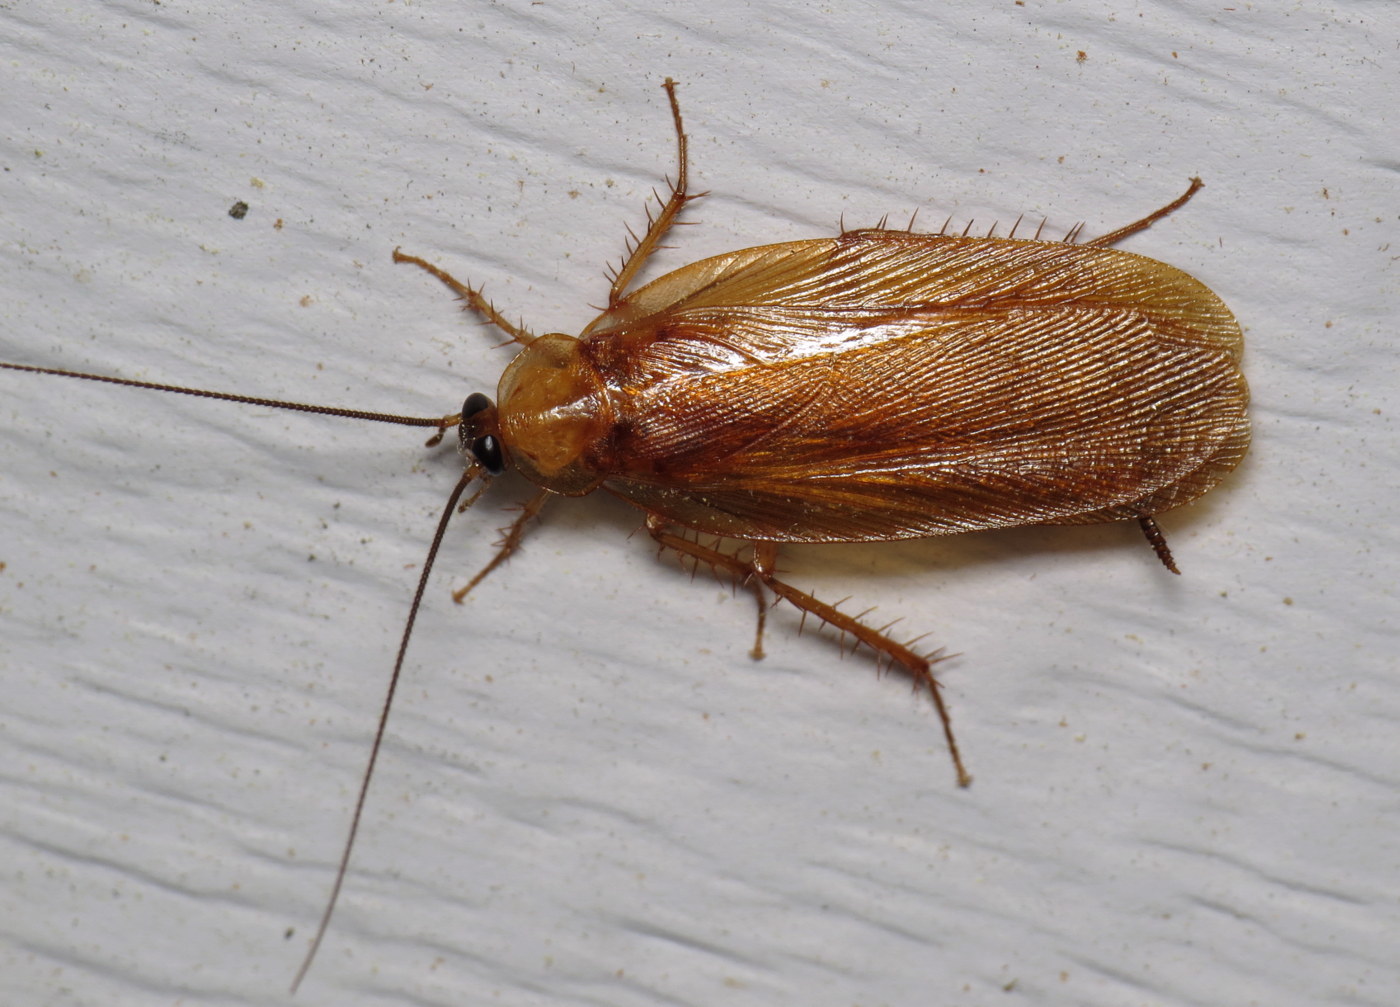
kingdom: Animalia
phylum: Arthropoda
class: Insecta
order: Blattodea
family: Ectobiidae
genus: Parcoblatta
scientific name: Parcoblatta virginica
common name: Virginia wood cockroach
